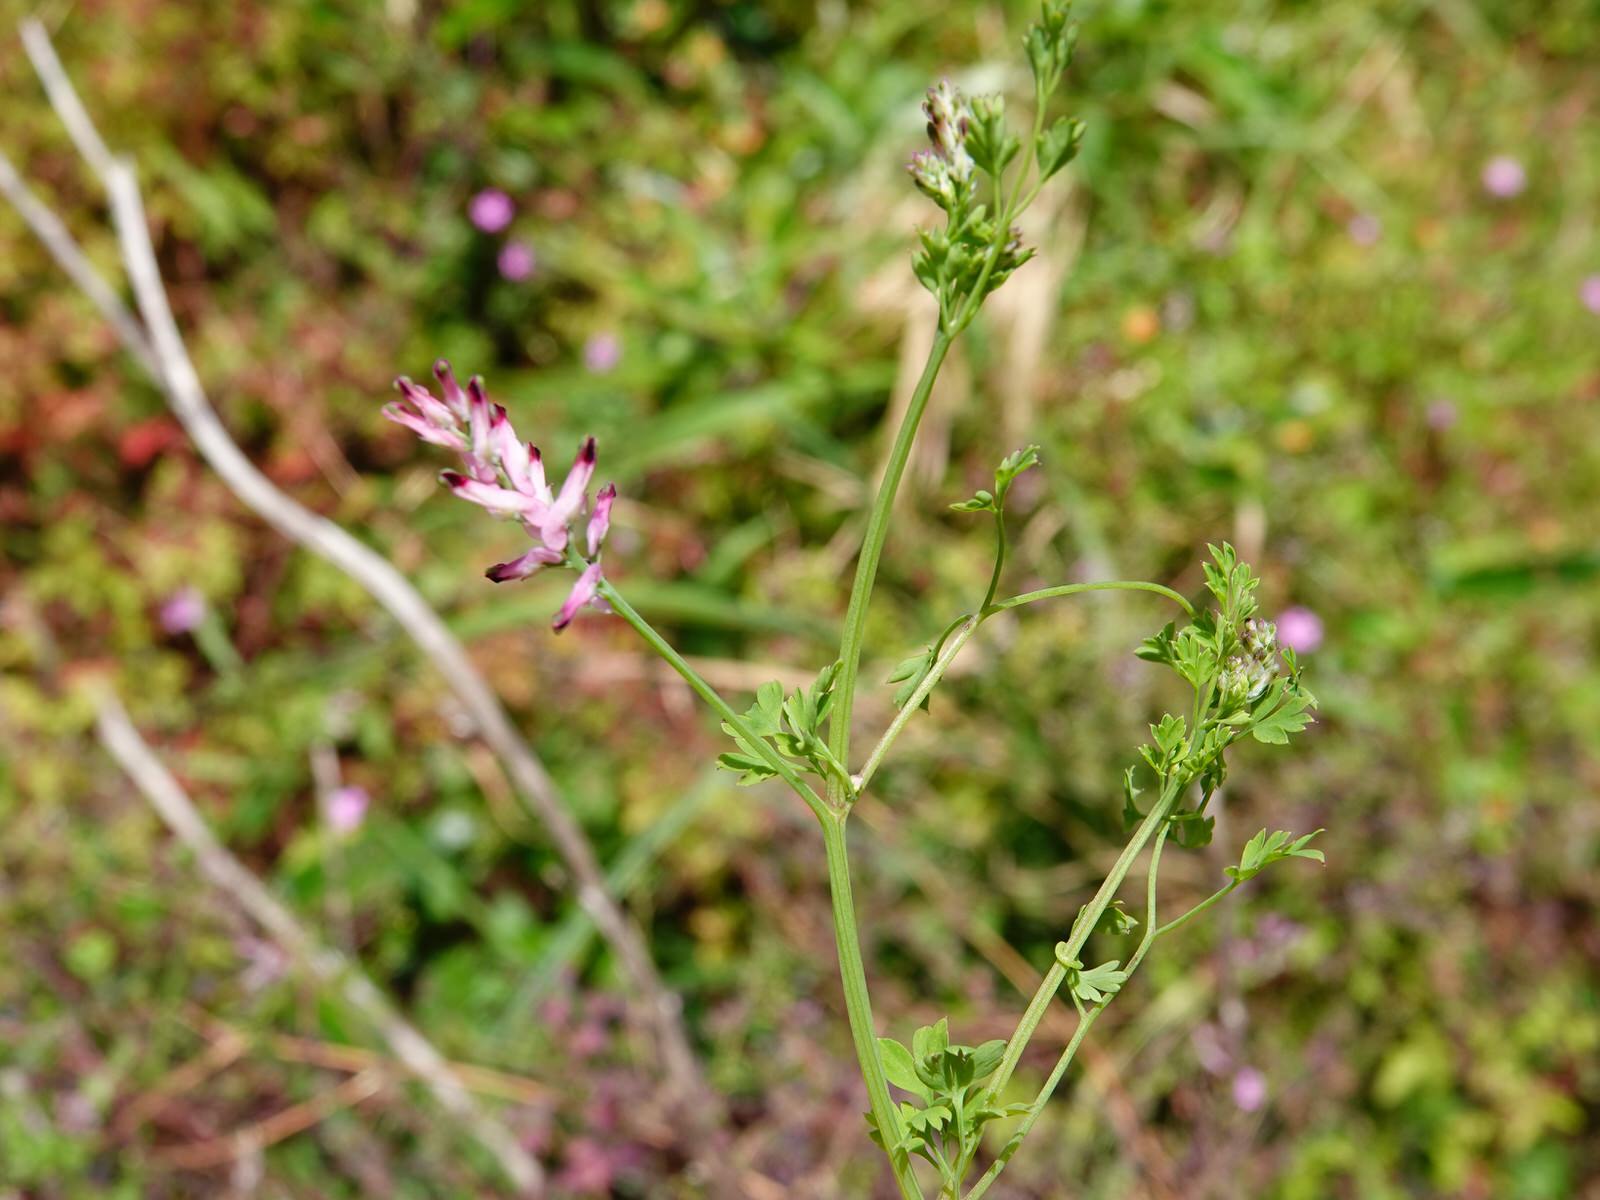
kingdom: Plantae
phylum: Tracheophyta
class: Magnoliopsida
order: Ranunculales
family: Papaveraceae
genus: Fumaria
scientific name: Fumaria muralis
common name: Common ramping-fumitory
